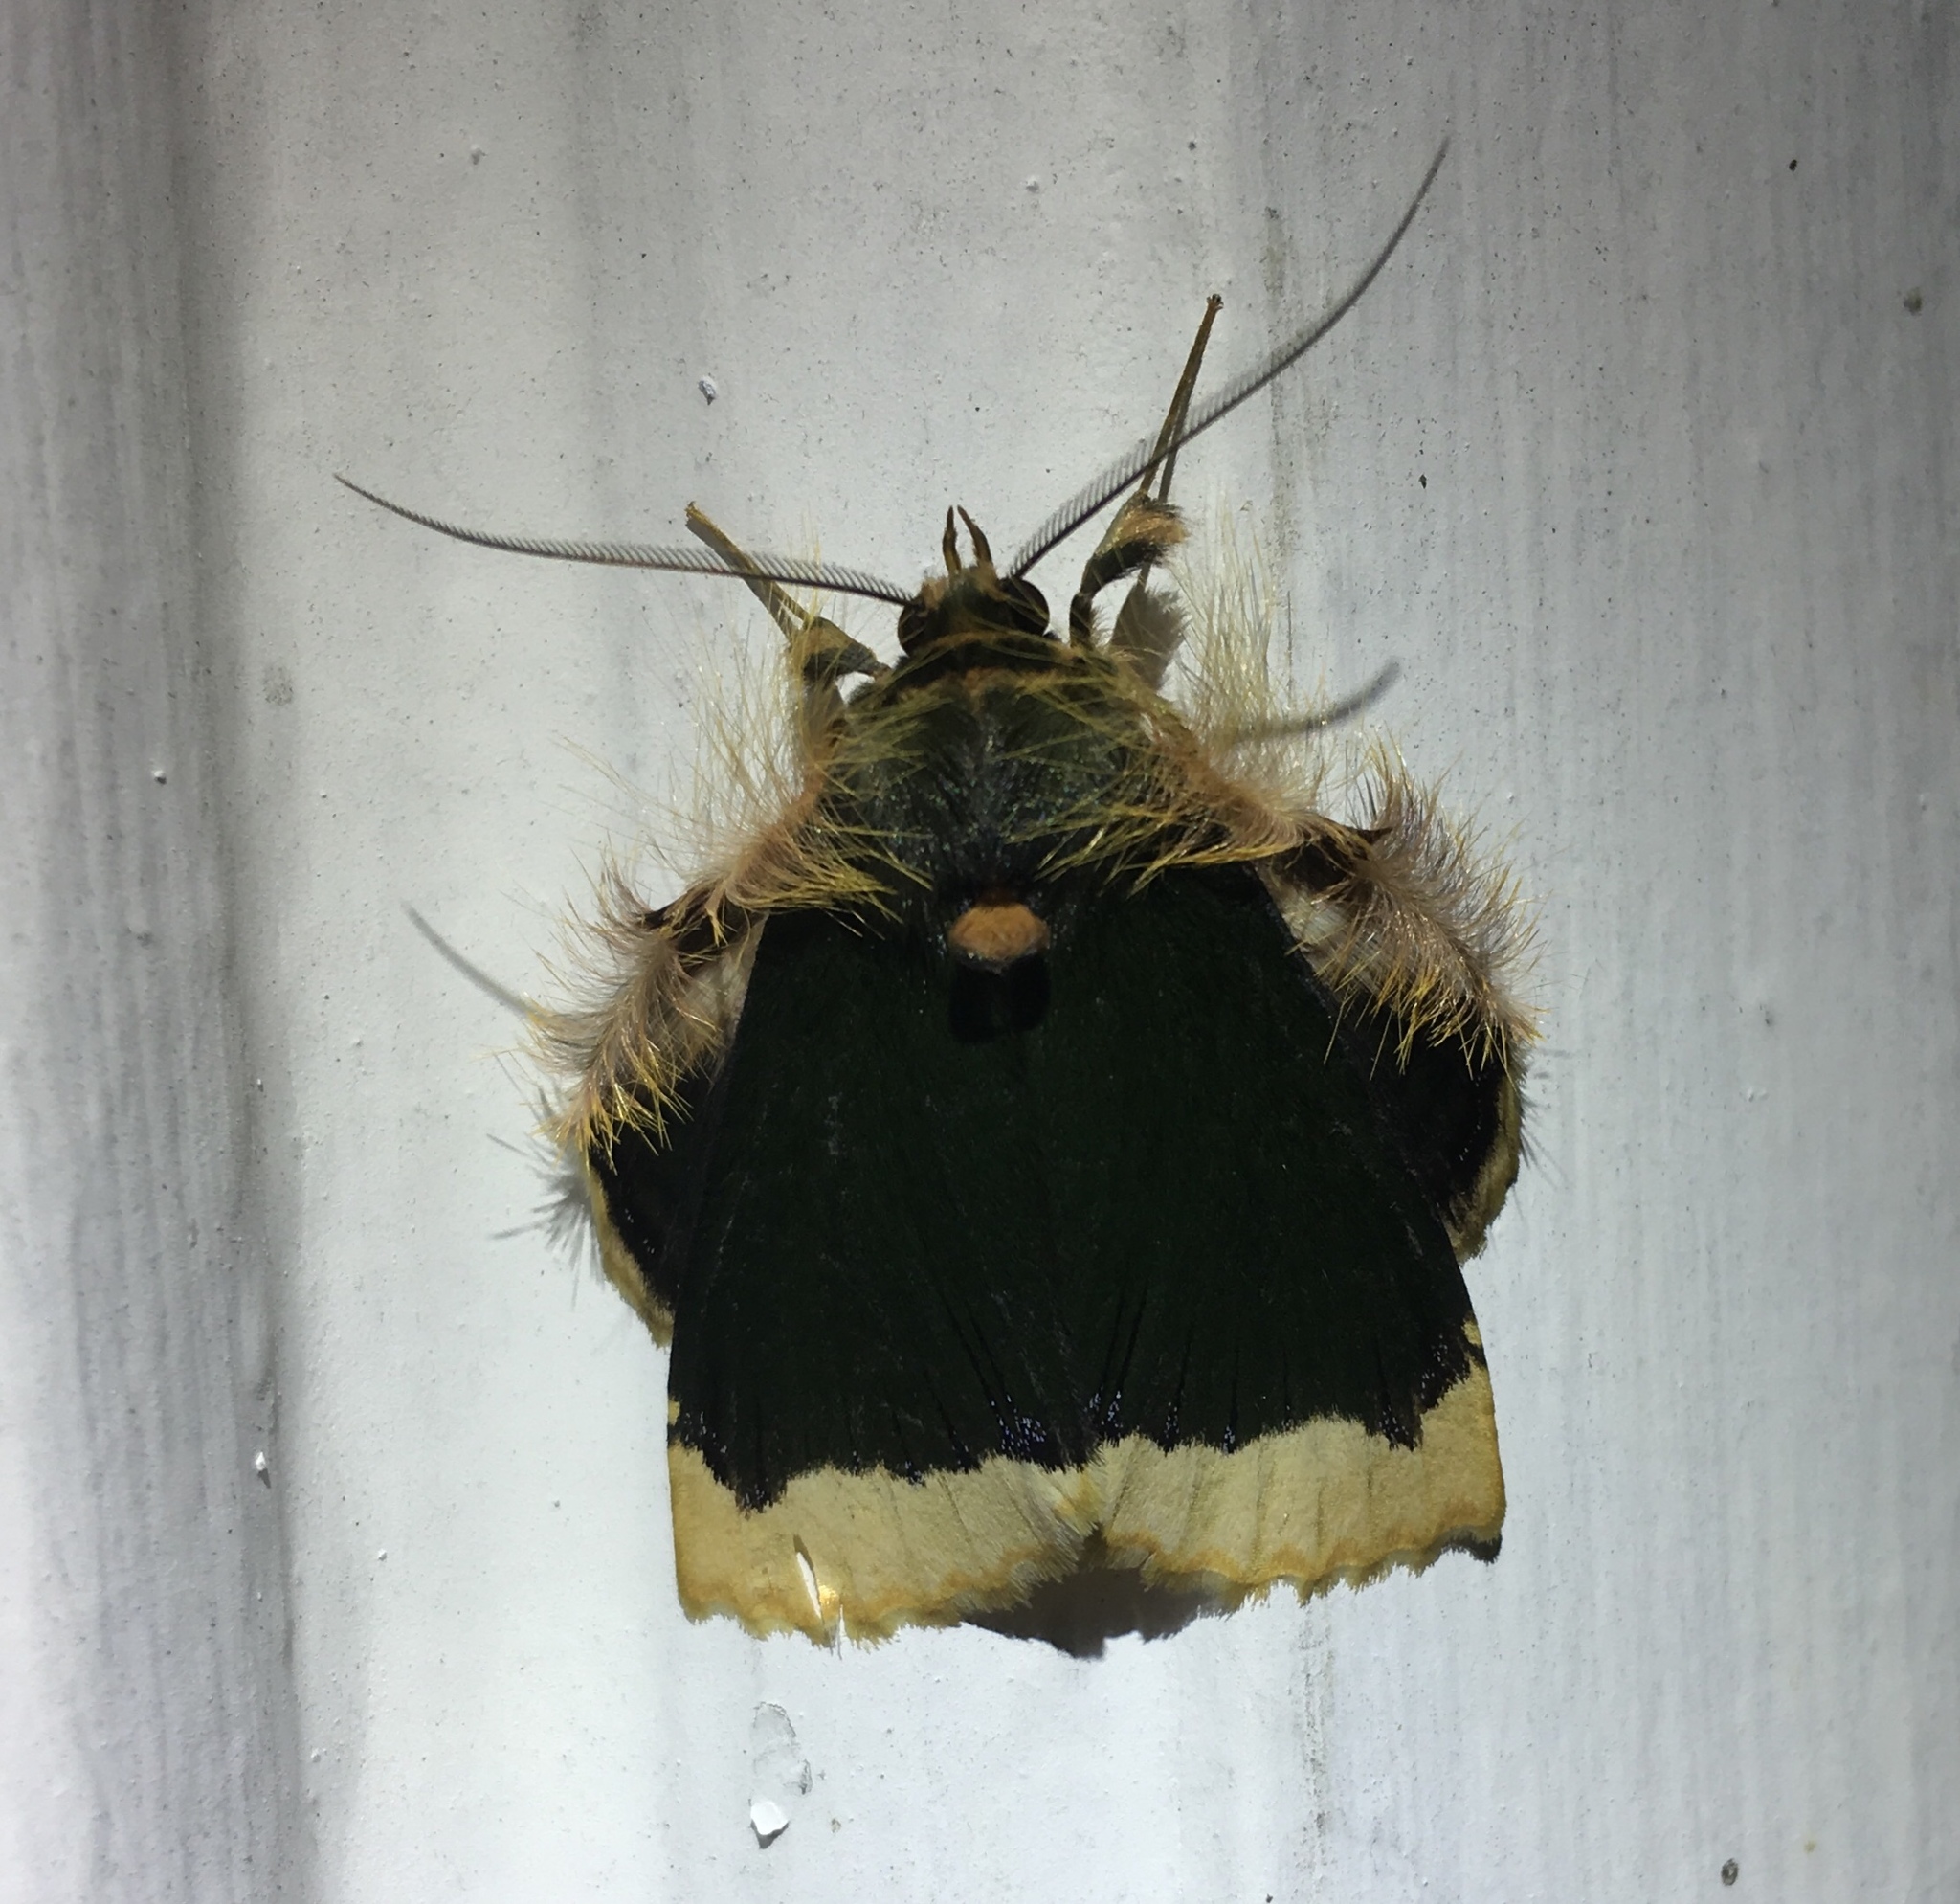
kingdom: Animalia
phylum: Arthropoda
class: Insecta
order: Lepidoptera
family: Erebidae
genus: Ceroctena
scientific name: Ceroctena amynta
